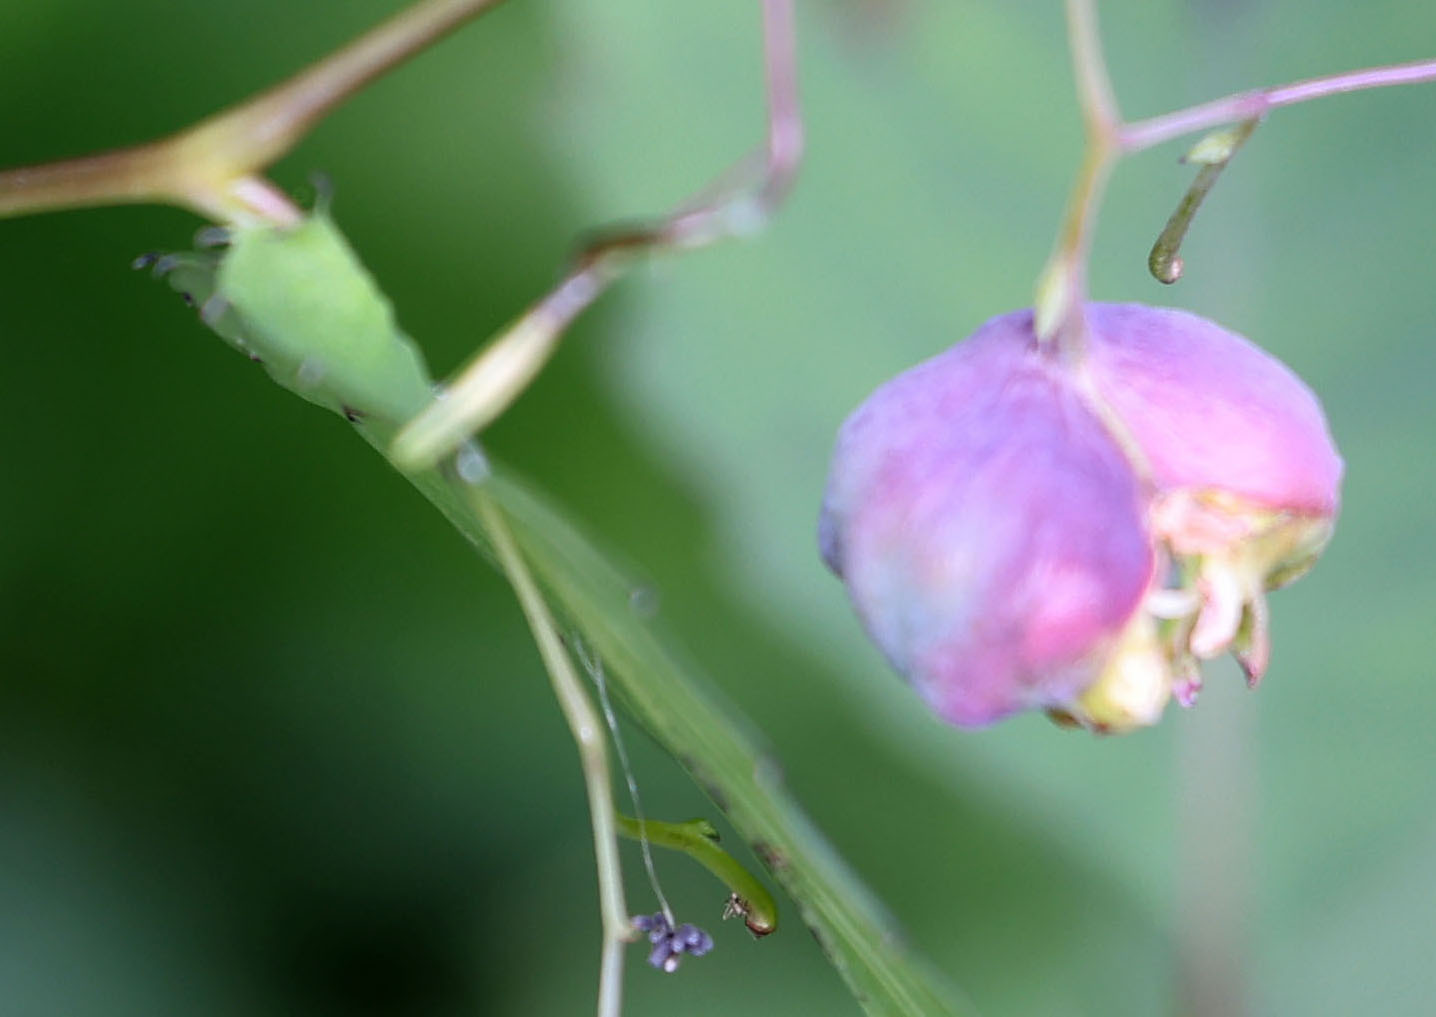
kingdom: Animalia
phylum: Arthropoda
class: Insecta
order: Diptera
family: Cecidomyiidae
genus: Schizomyia
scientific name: Schizomyia impatientis
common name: Jewelweed gall midge
